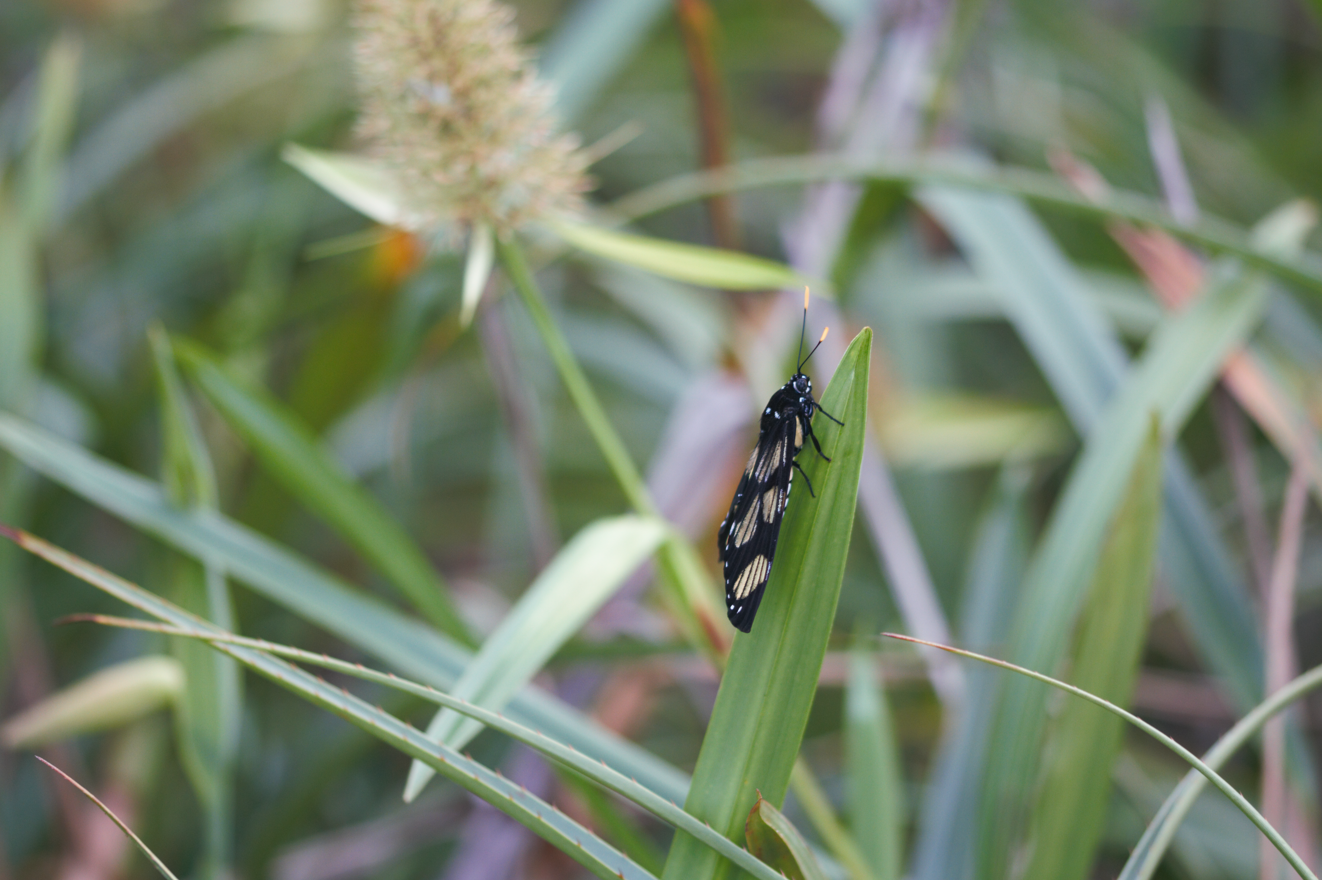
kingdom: Animalia
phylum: Arthropoda
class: Insecta
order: Lepidoptera
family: Castniidae
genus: Gazera
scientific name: Gazera heliconioides
